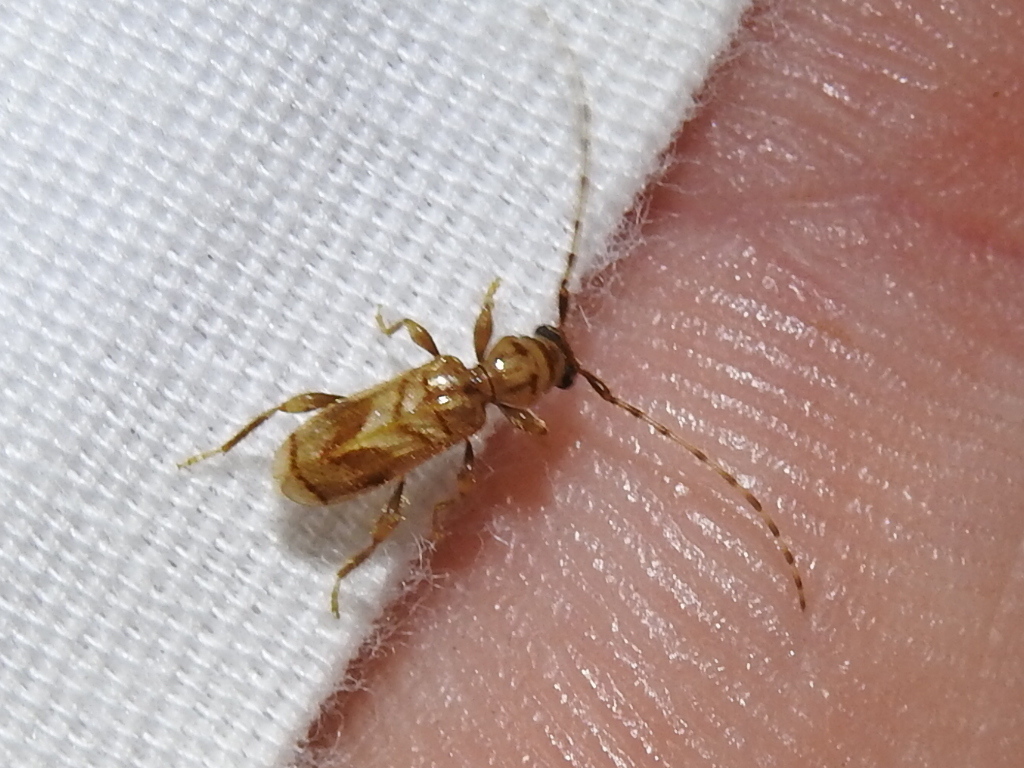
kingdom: Animalia
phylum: Arthropoda
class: Insecta
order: Coleoptera
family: Cerambycidae
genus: Obrium
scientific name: Obrium maculatum
